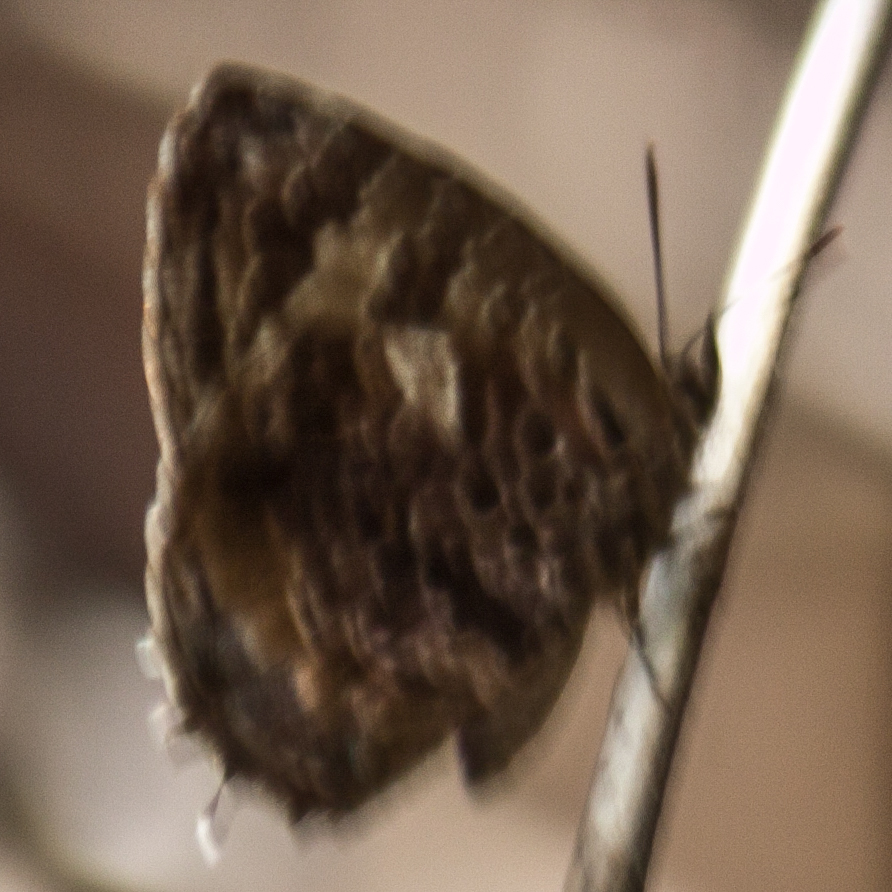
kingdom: Animalia
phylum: Arthropoda
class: Insecta
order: Lepidoptera
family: Lycaenidae
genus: Arhopala
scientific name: Arhopala abseus
